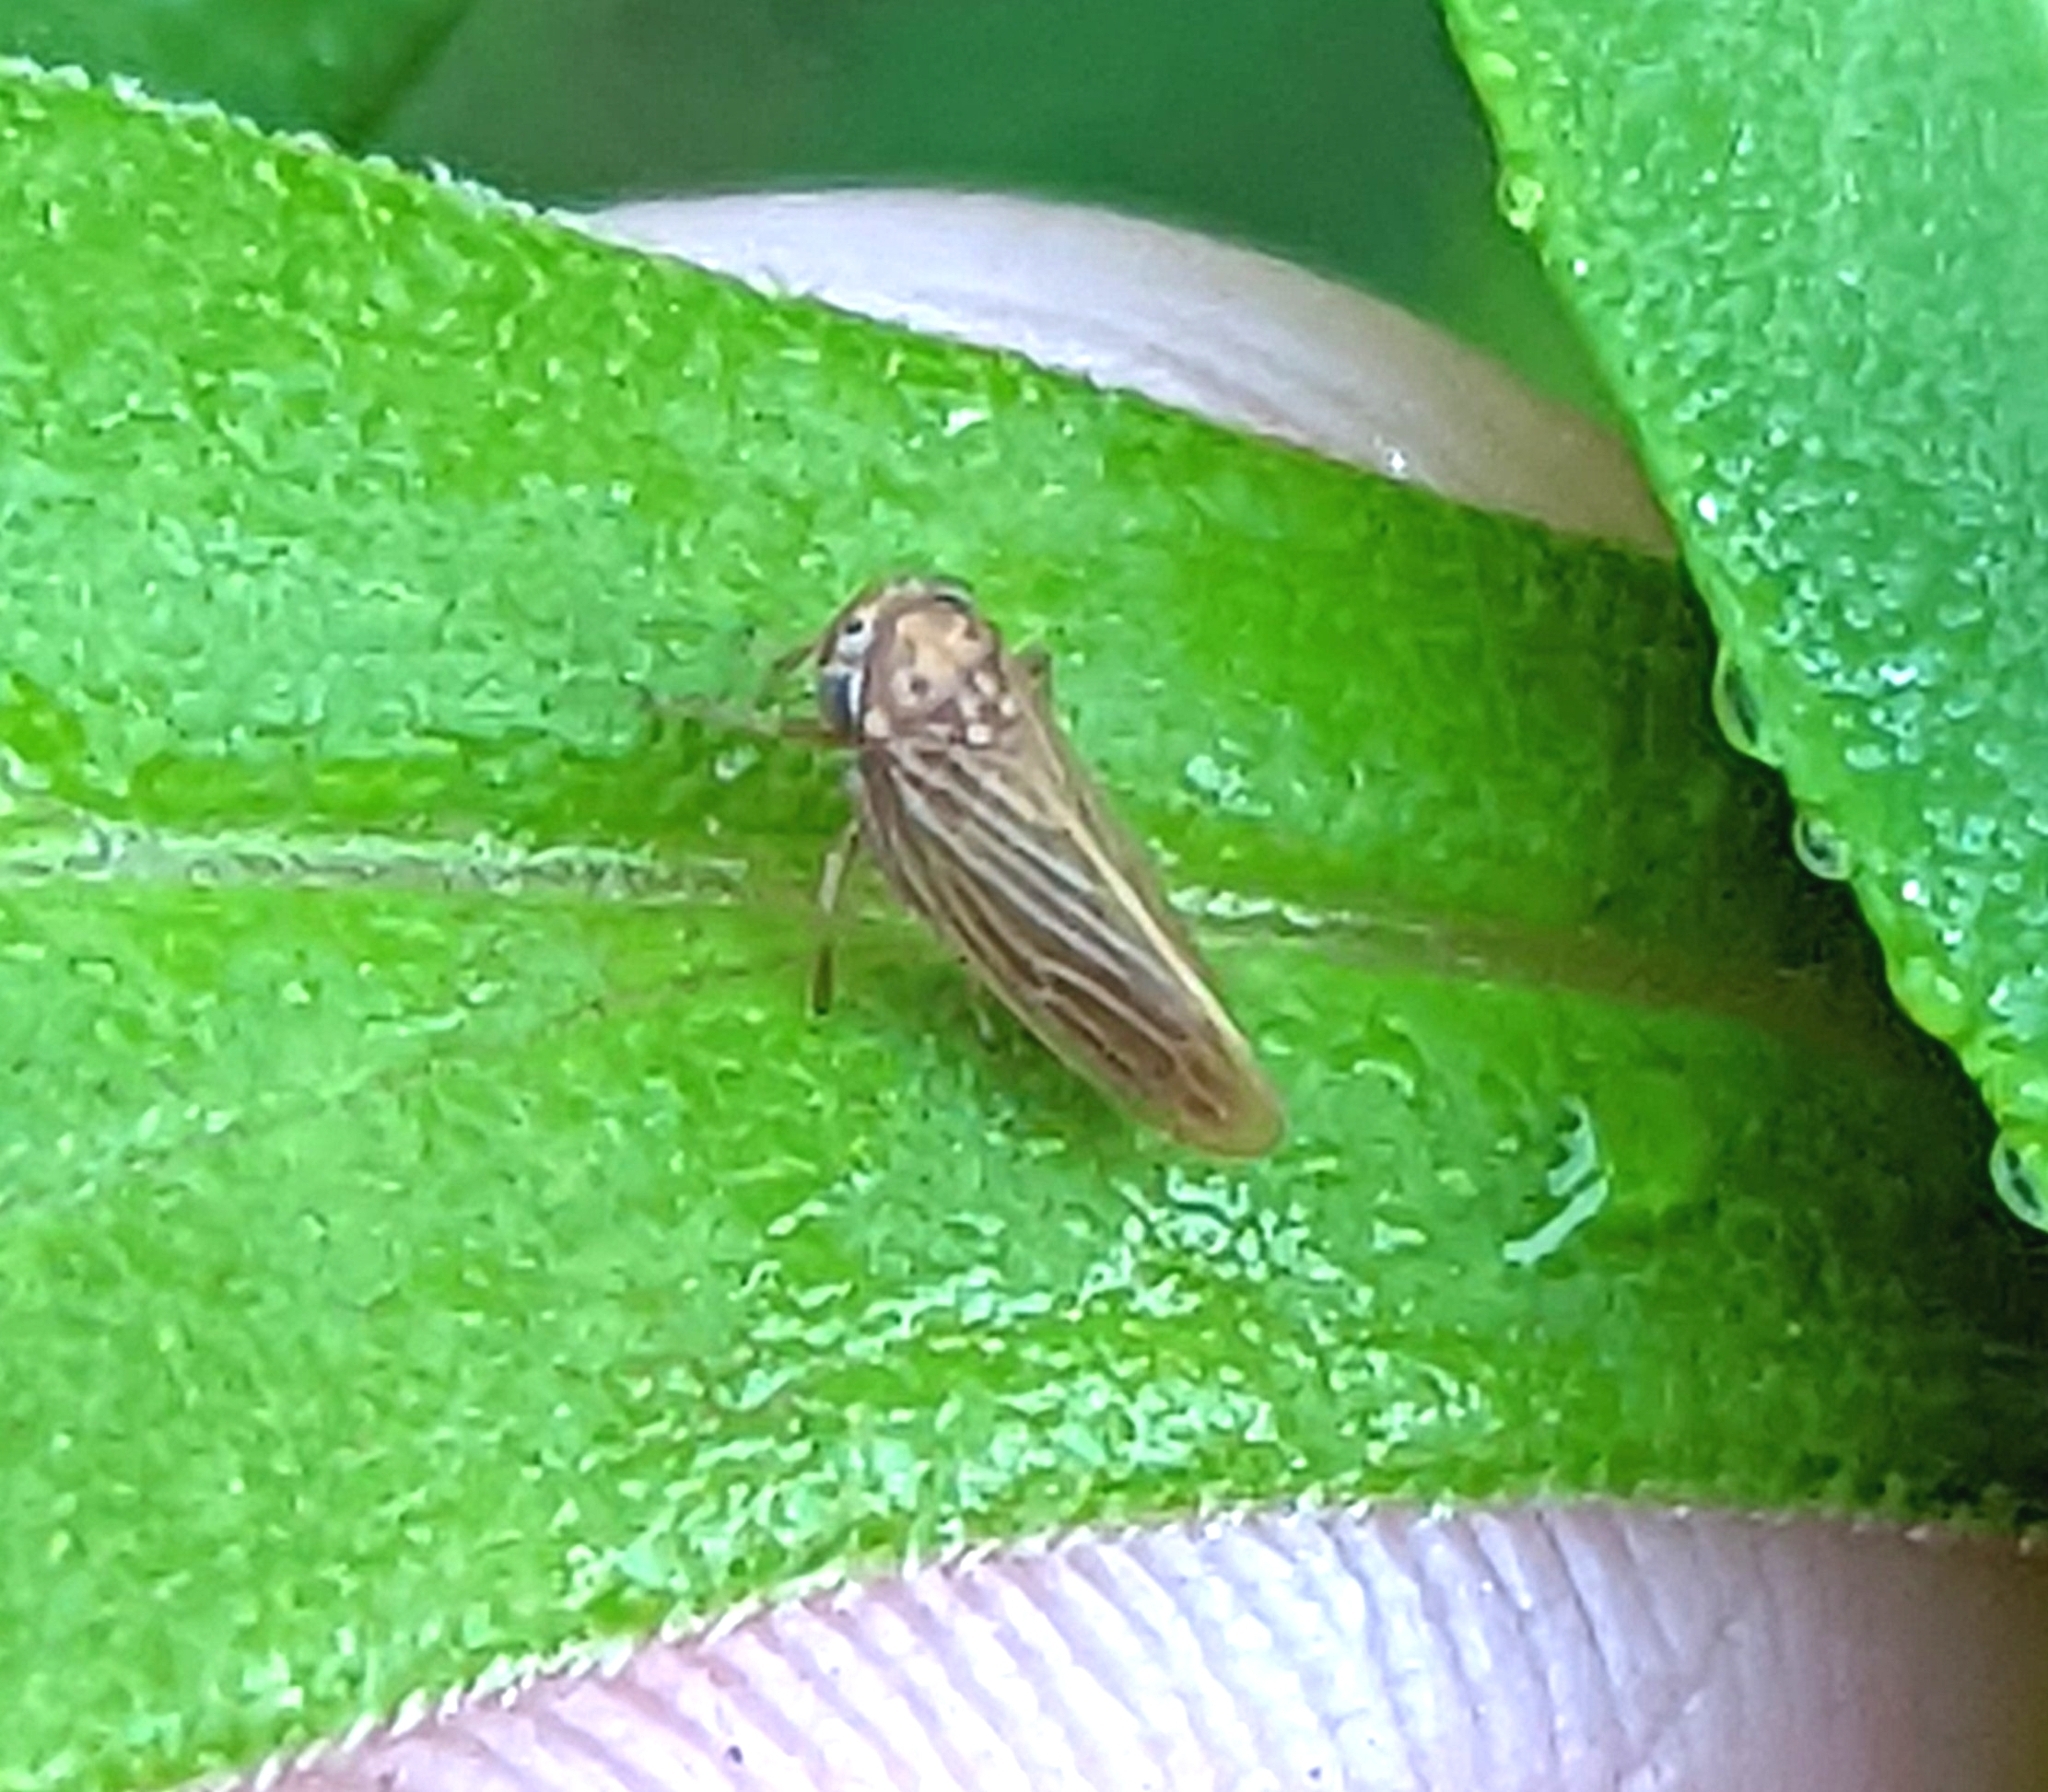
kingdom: Animalia
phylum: Arthropoda
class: Insecta
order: Hemiptera
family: Cicadellidae
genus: Agallia
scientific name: Agallia constricta
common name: The constricted leafhopper
